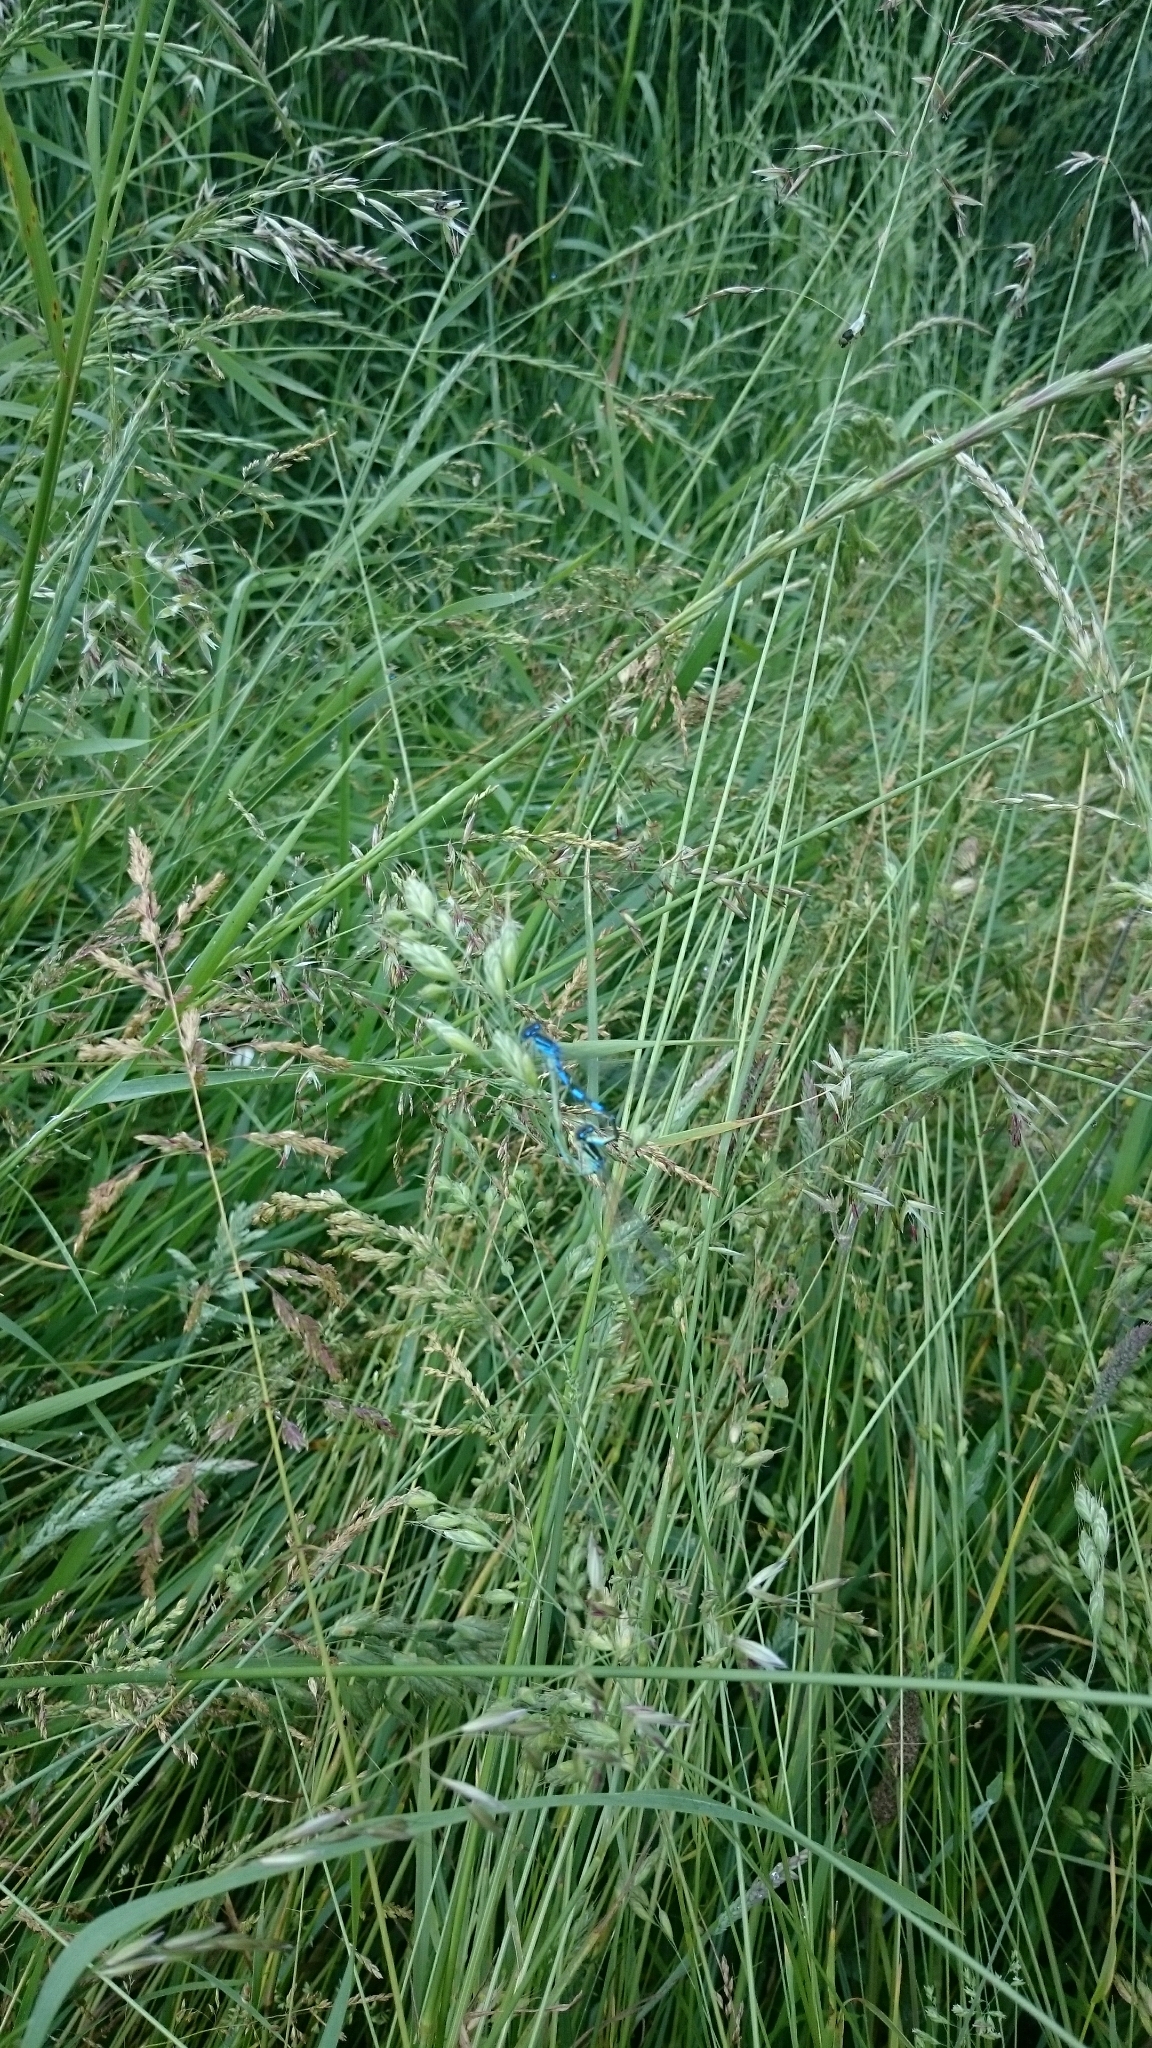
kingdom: Animalia
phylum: Arthropoda
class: Insecta
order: Odonata
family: Coenagrionidae
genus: Coenagrion
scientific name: Coenagrion scitulum
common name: Dainty bluet
